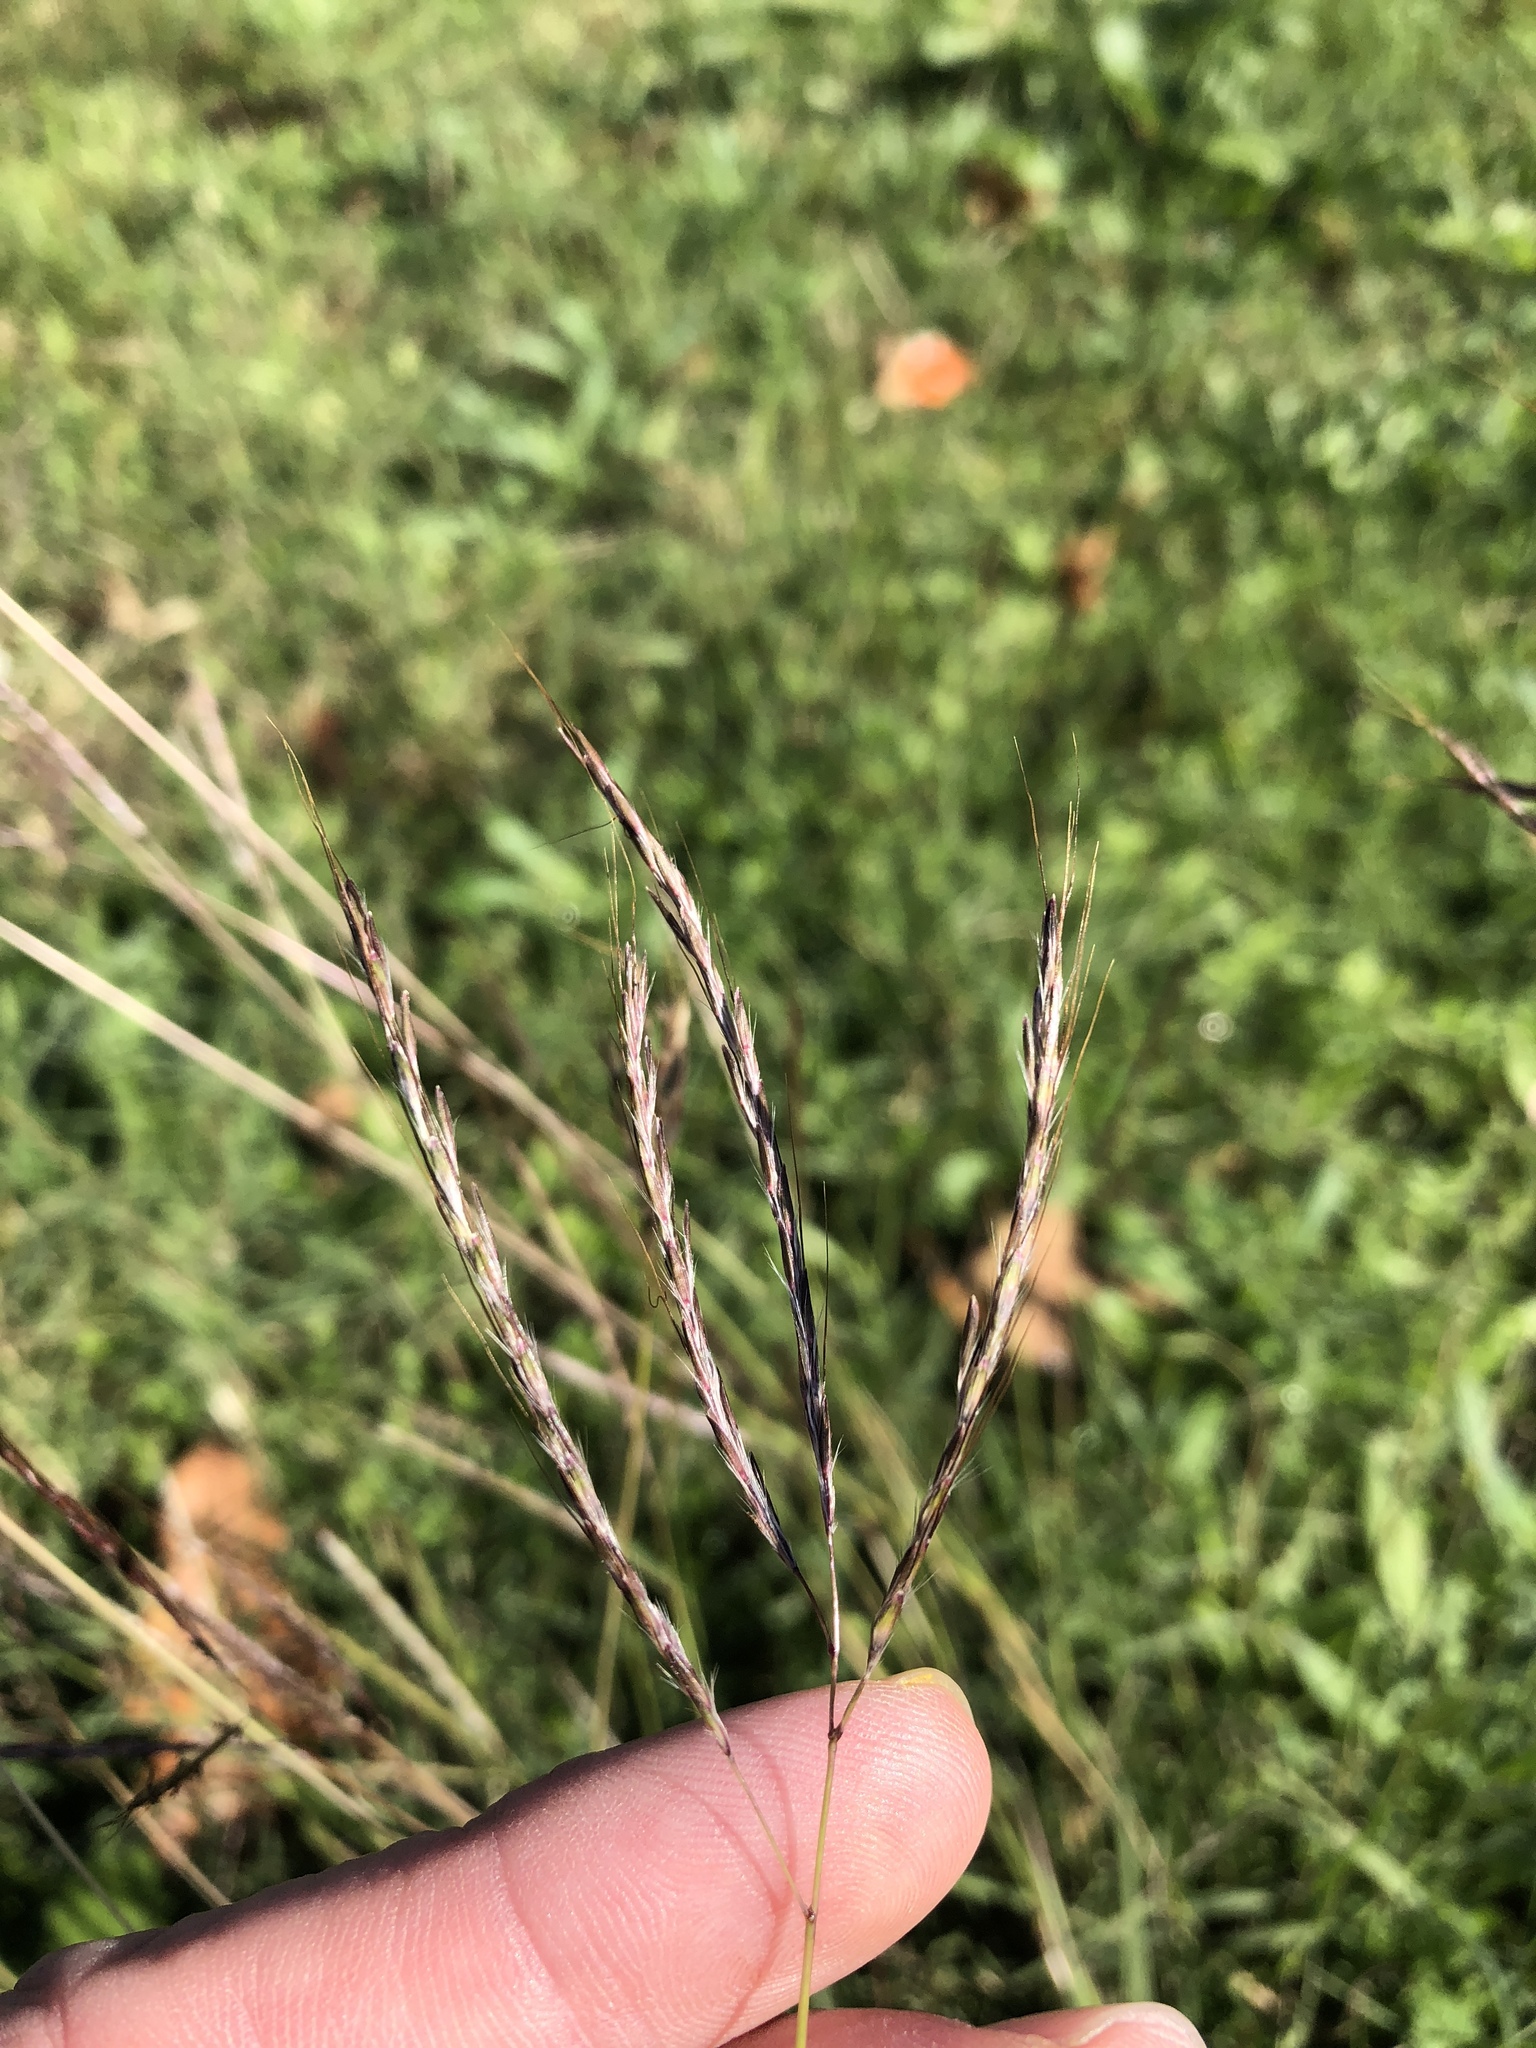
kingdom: Plantae
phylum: Tracheophyta
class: Liliopsida
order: Poales
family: Poaceae
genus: Bothriochloa
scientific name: Bothriochloa ischaemum
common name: Yellow bluestem
